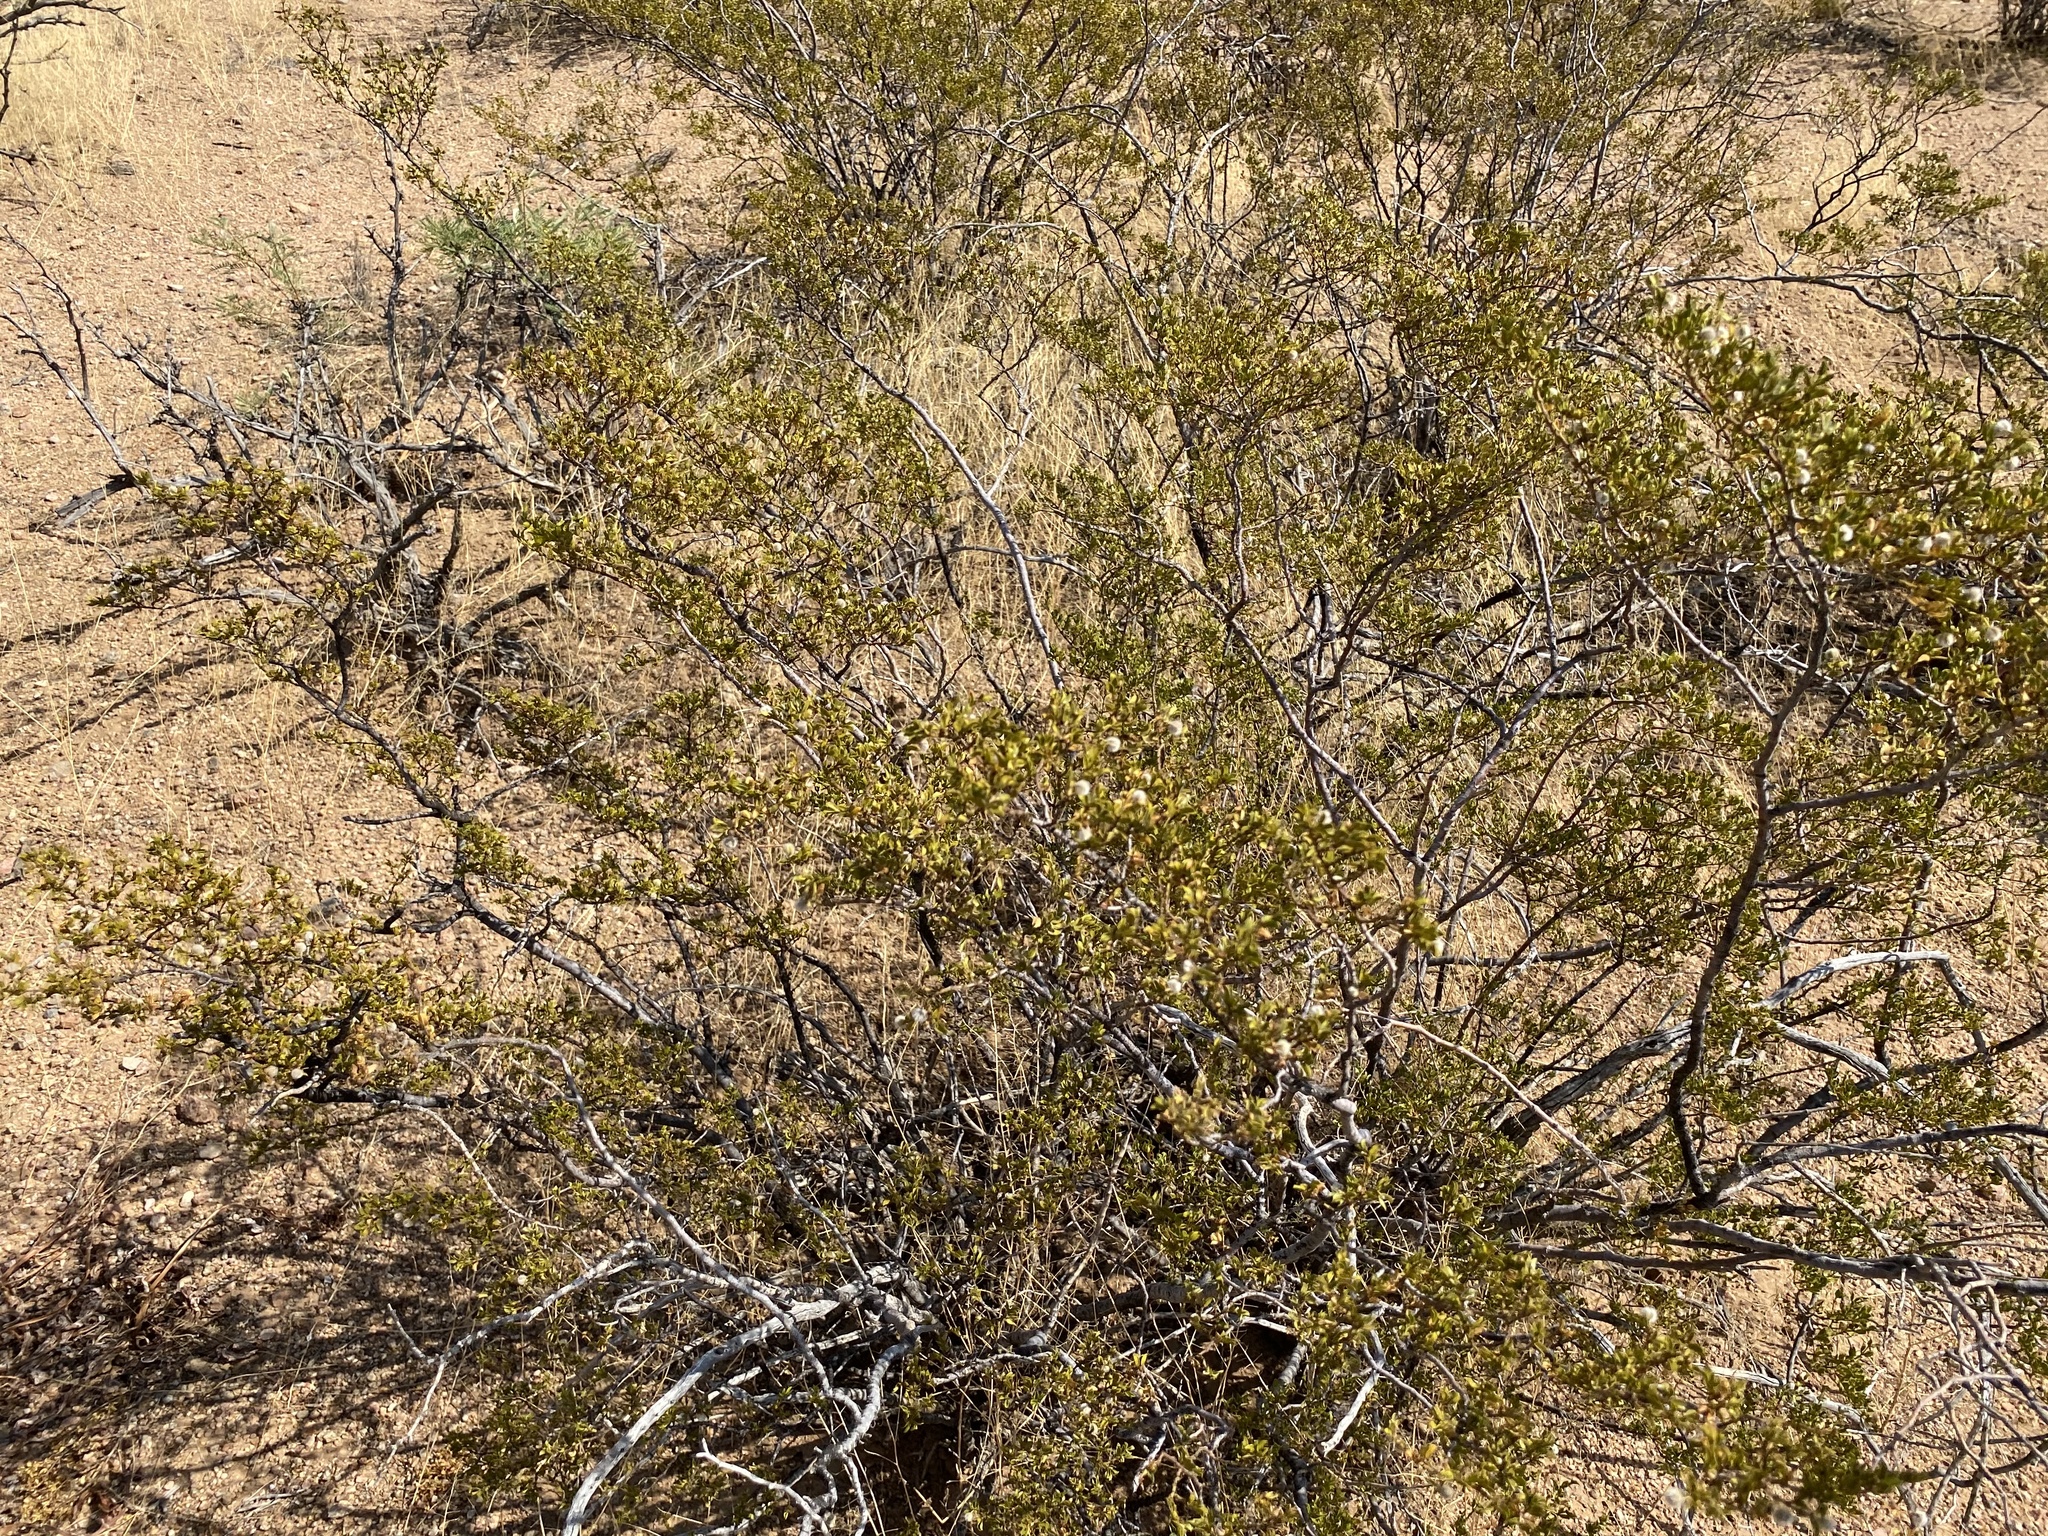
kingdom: Plantae
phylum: Tracheophyta
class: Magnoliopsida
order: Zygophyllales
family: Zygophyllaceae
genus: Larrea
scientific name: Larrea tridentata
